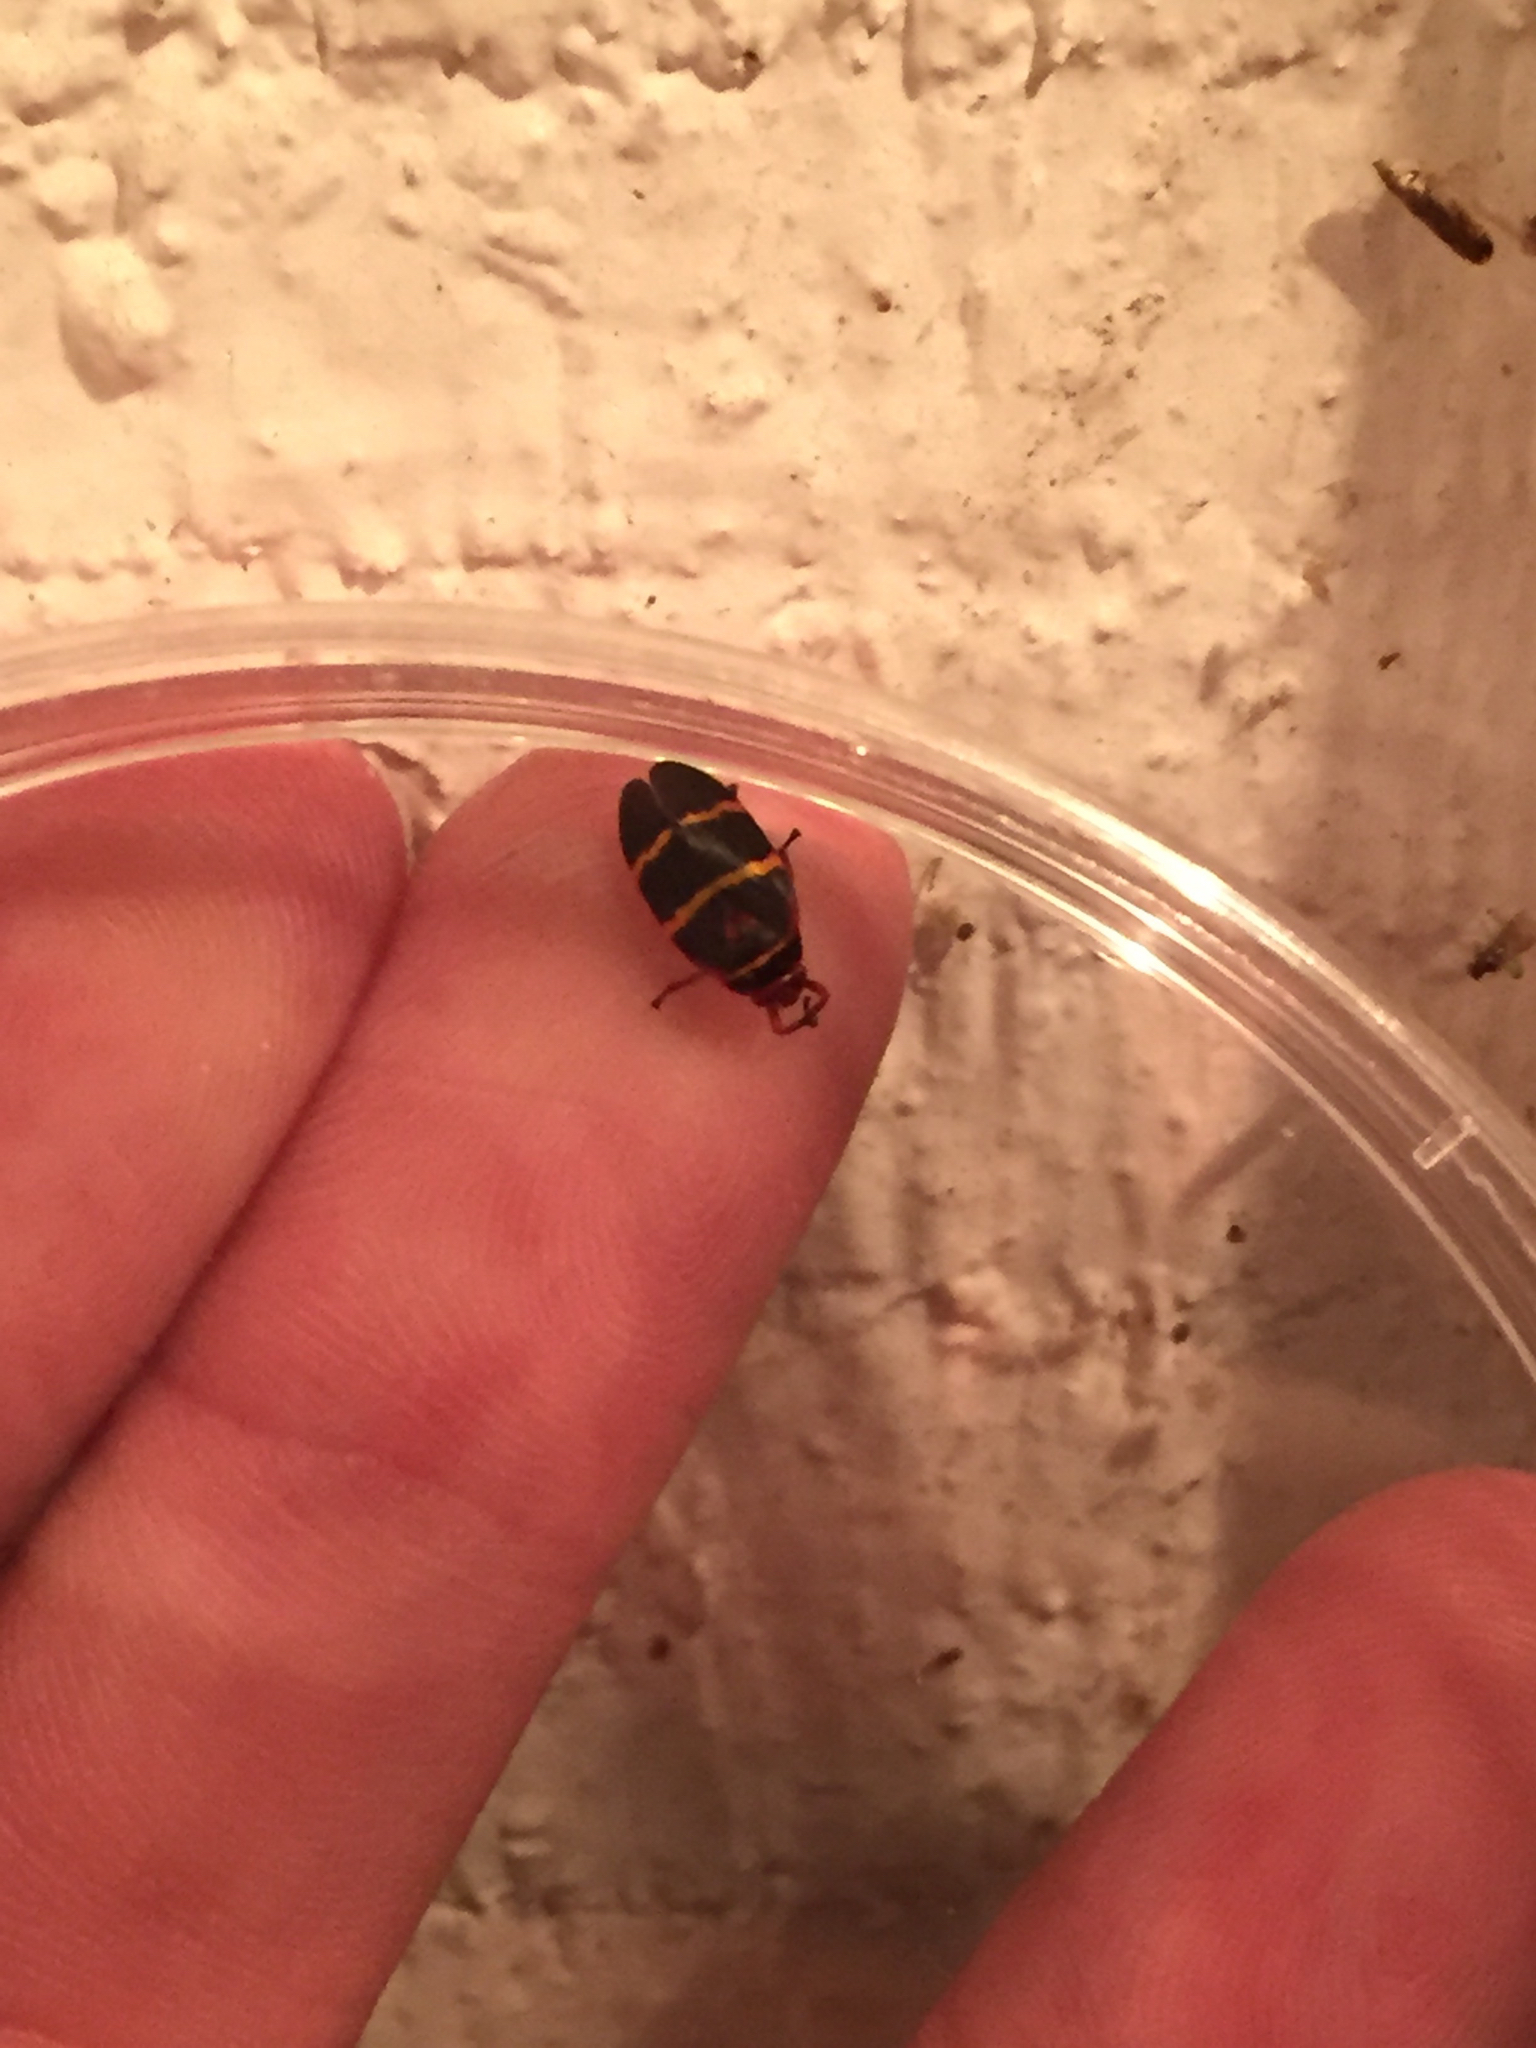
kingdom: Animalia
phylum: Arthropoda
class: Insecta
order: Hemiptera
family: Cercopidae
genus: Prosapia
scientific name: Prosapia bicincta
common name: Twolined spittlebug
